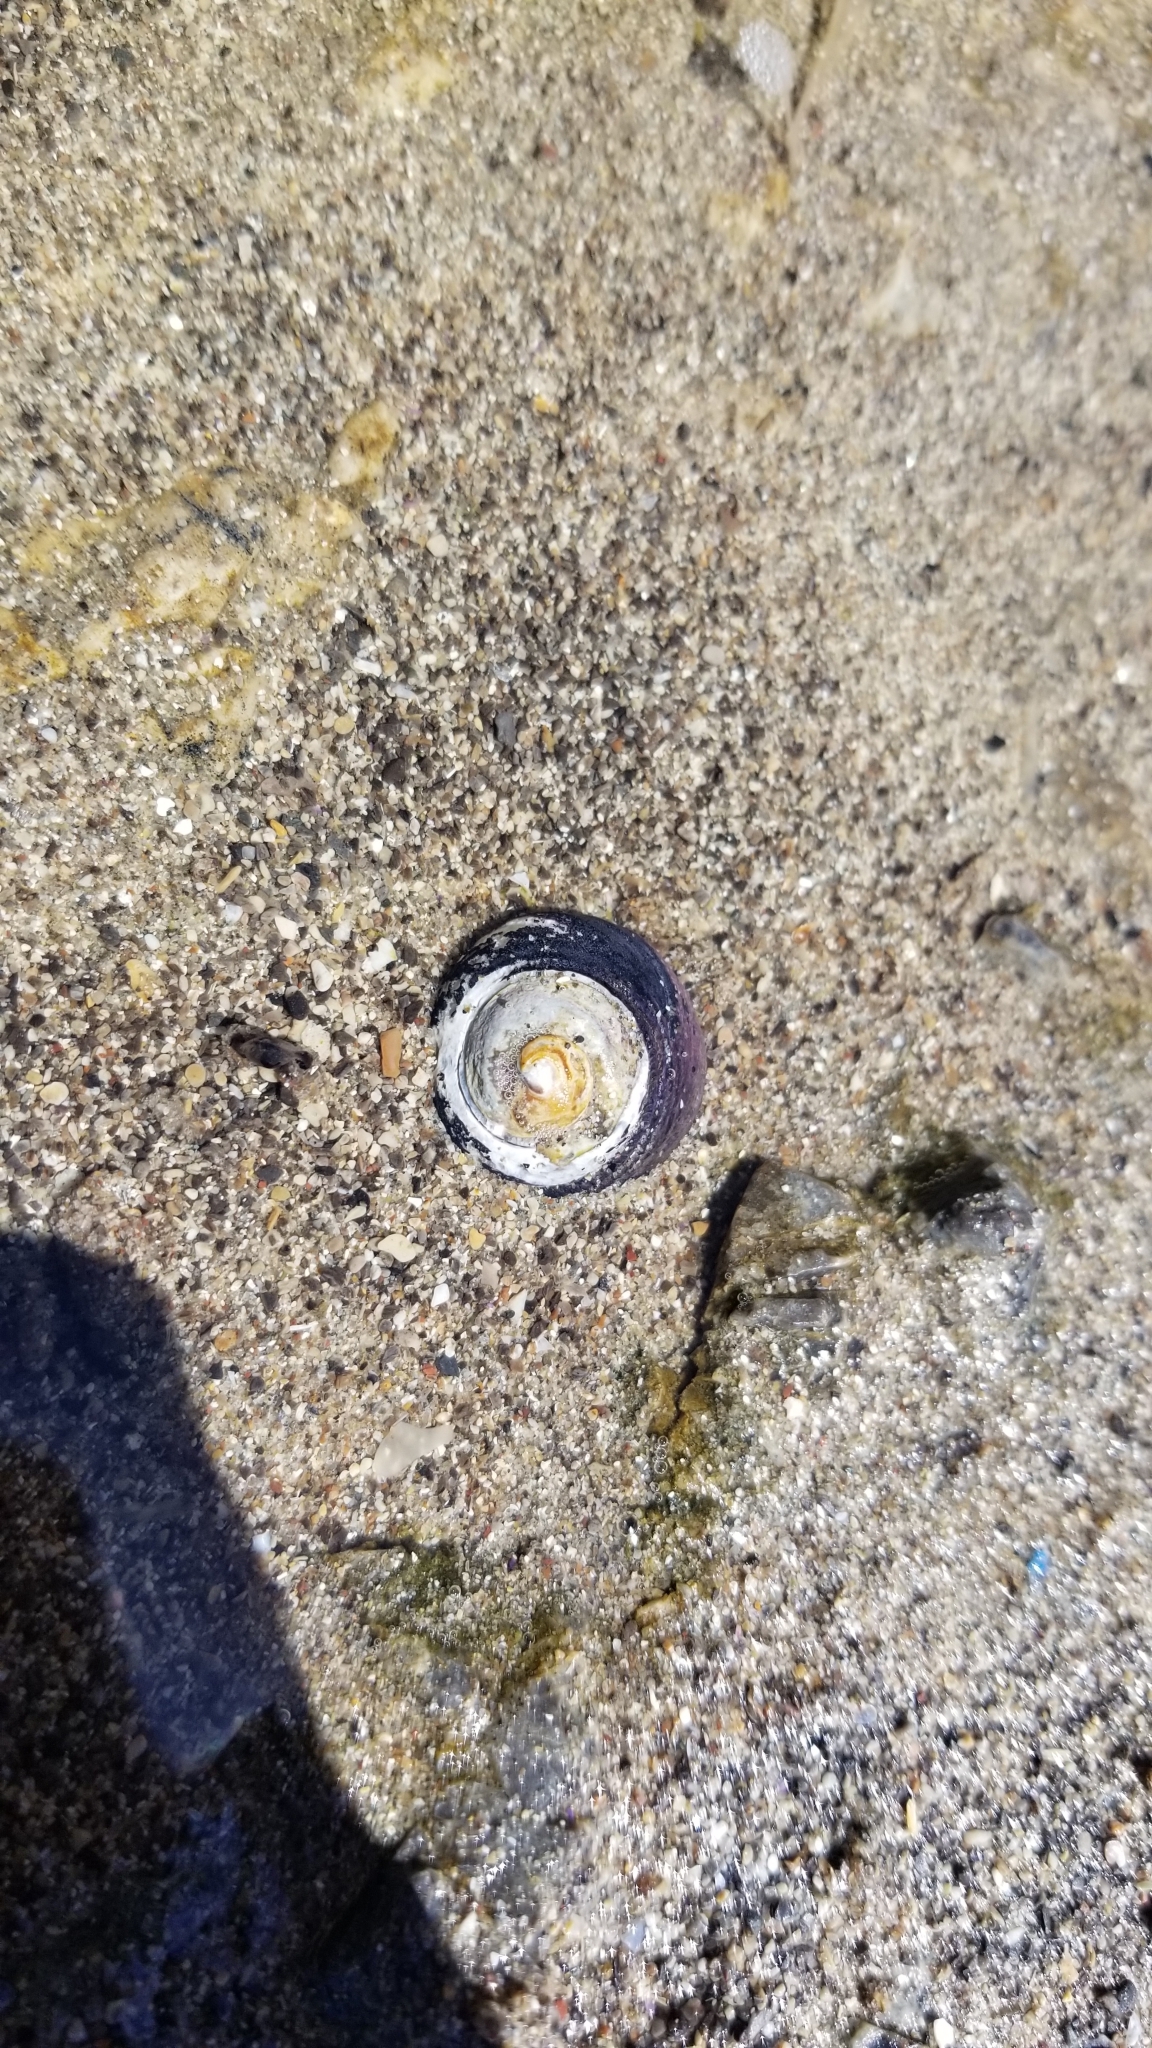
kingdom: Animalia
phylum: Mollusca
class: Gastropoda
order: Trochida
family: Tegulidae
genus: Tegula
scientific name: Tegula funebralis
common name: Black tegula
